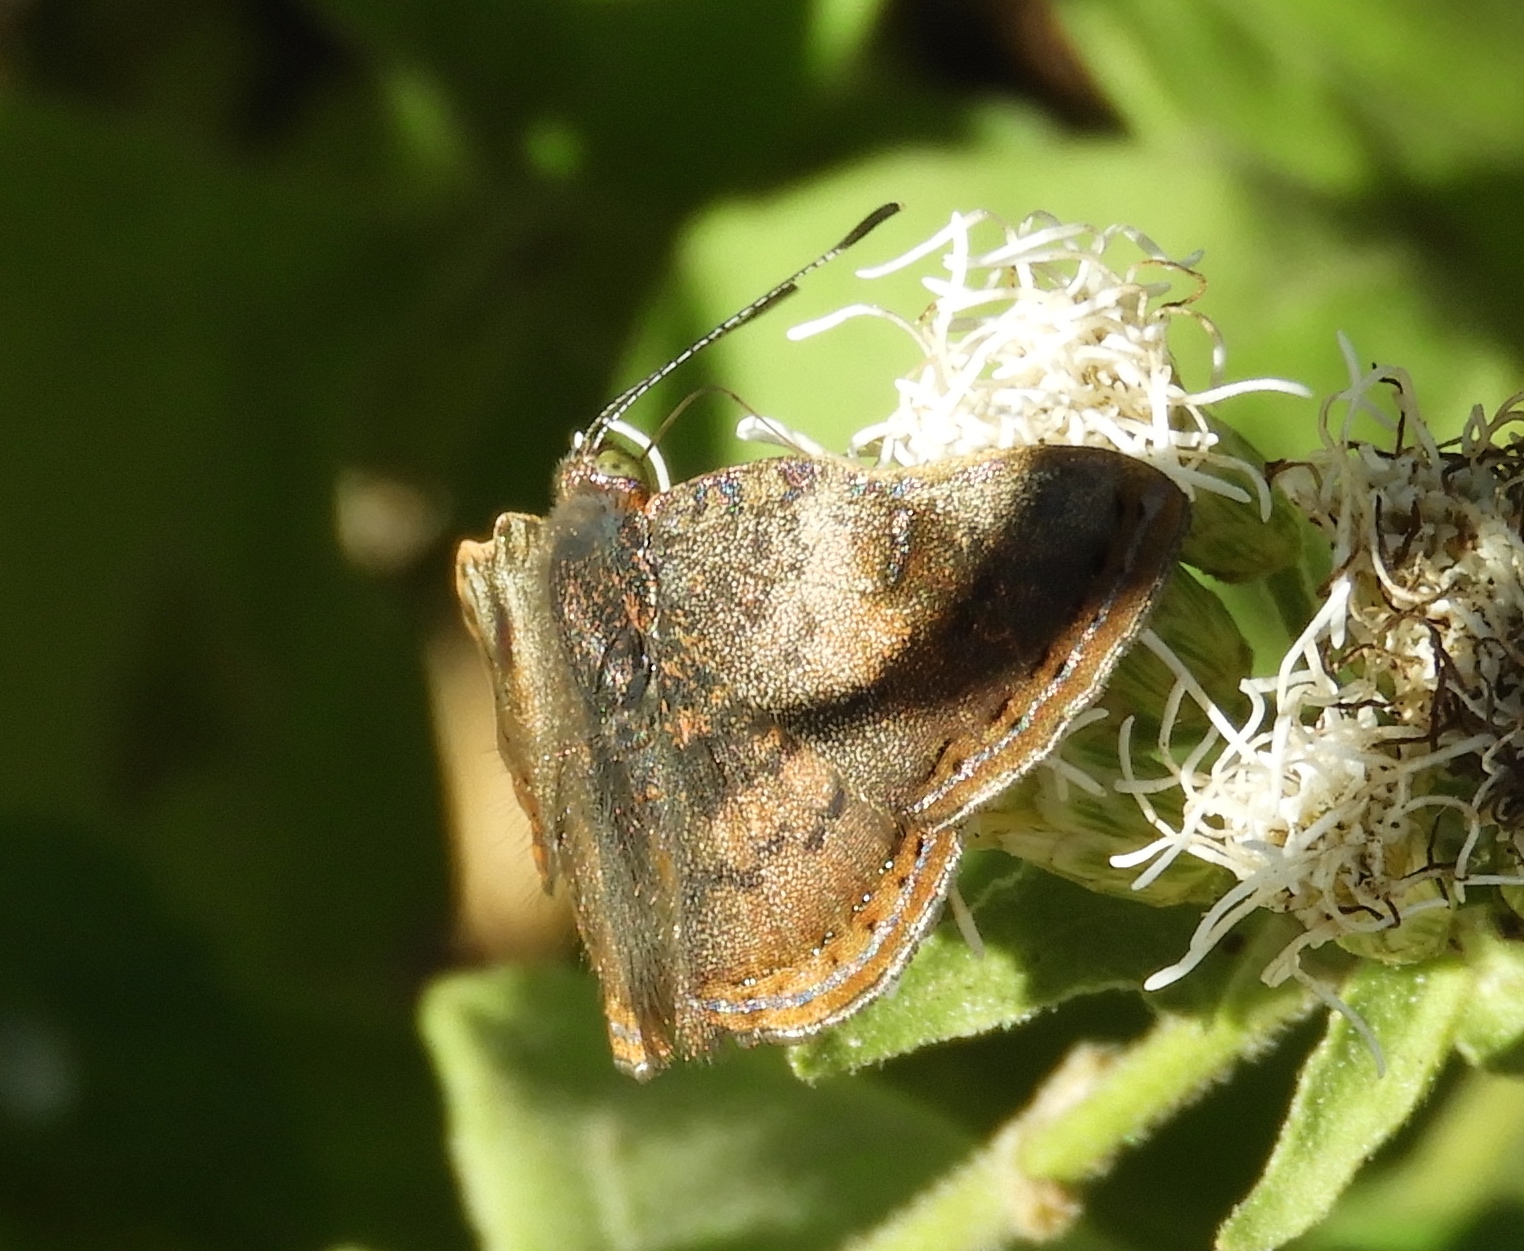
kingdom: Animalia
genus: Caria
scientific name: Caria ino
